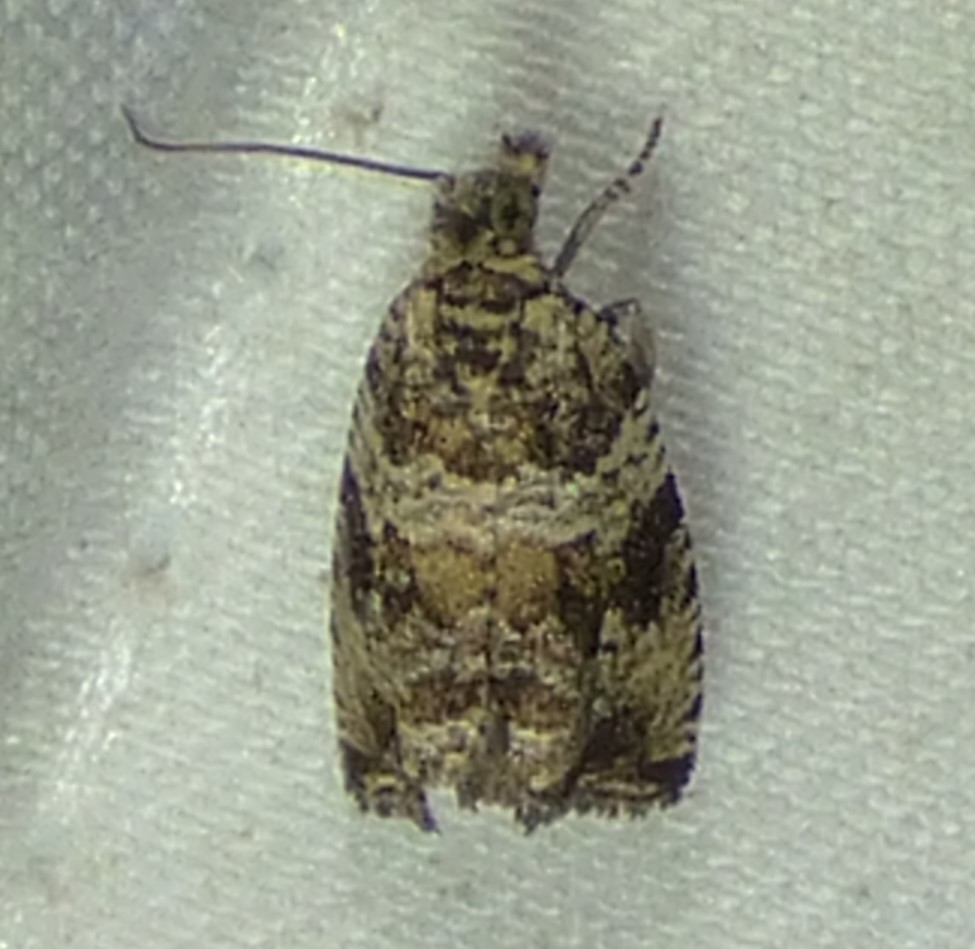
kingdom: Animalia
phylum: Arthropoda
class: Insecta
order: Lepidoptera
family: Tortricidae
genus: Celypha
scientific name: Celypha cespitana
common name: Thyme marble
